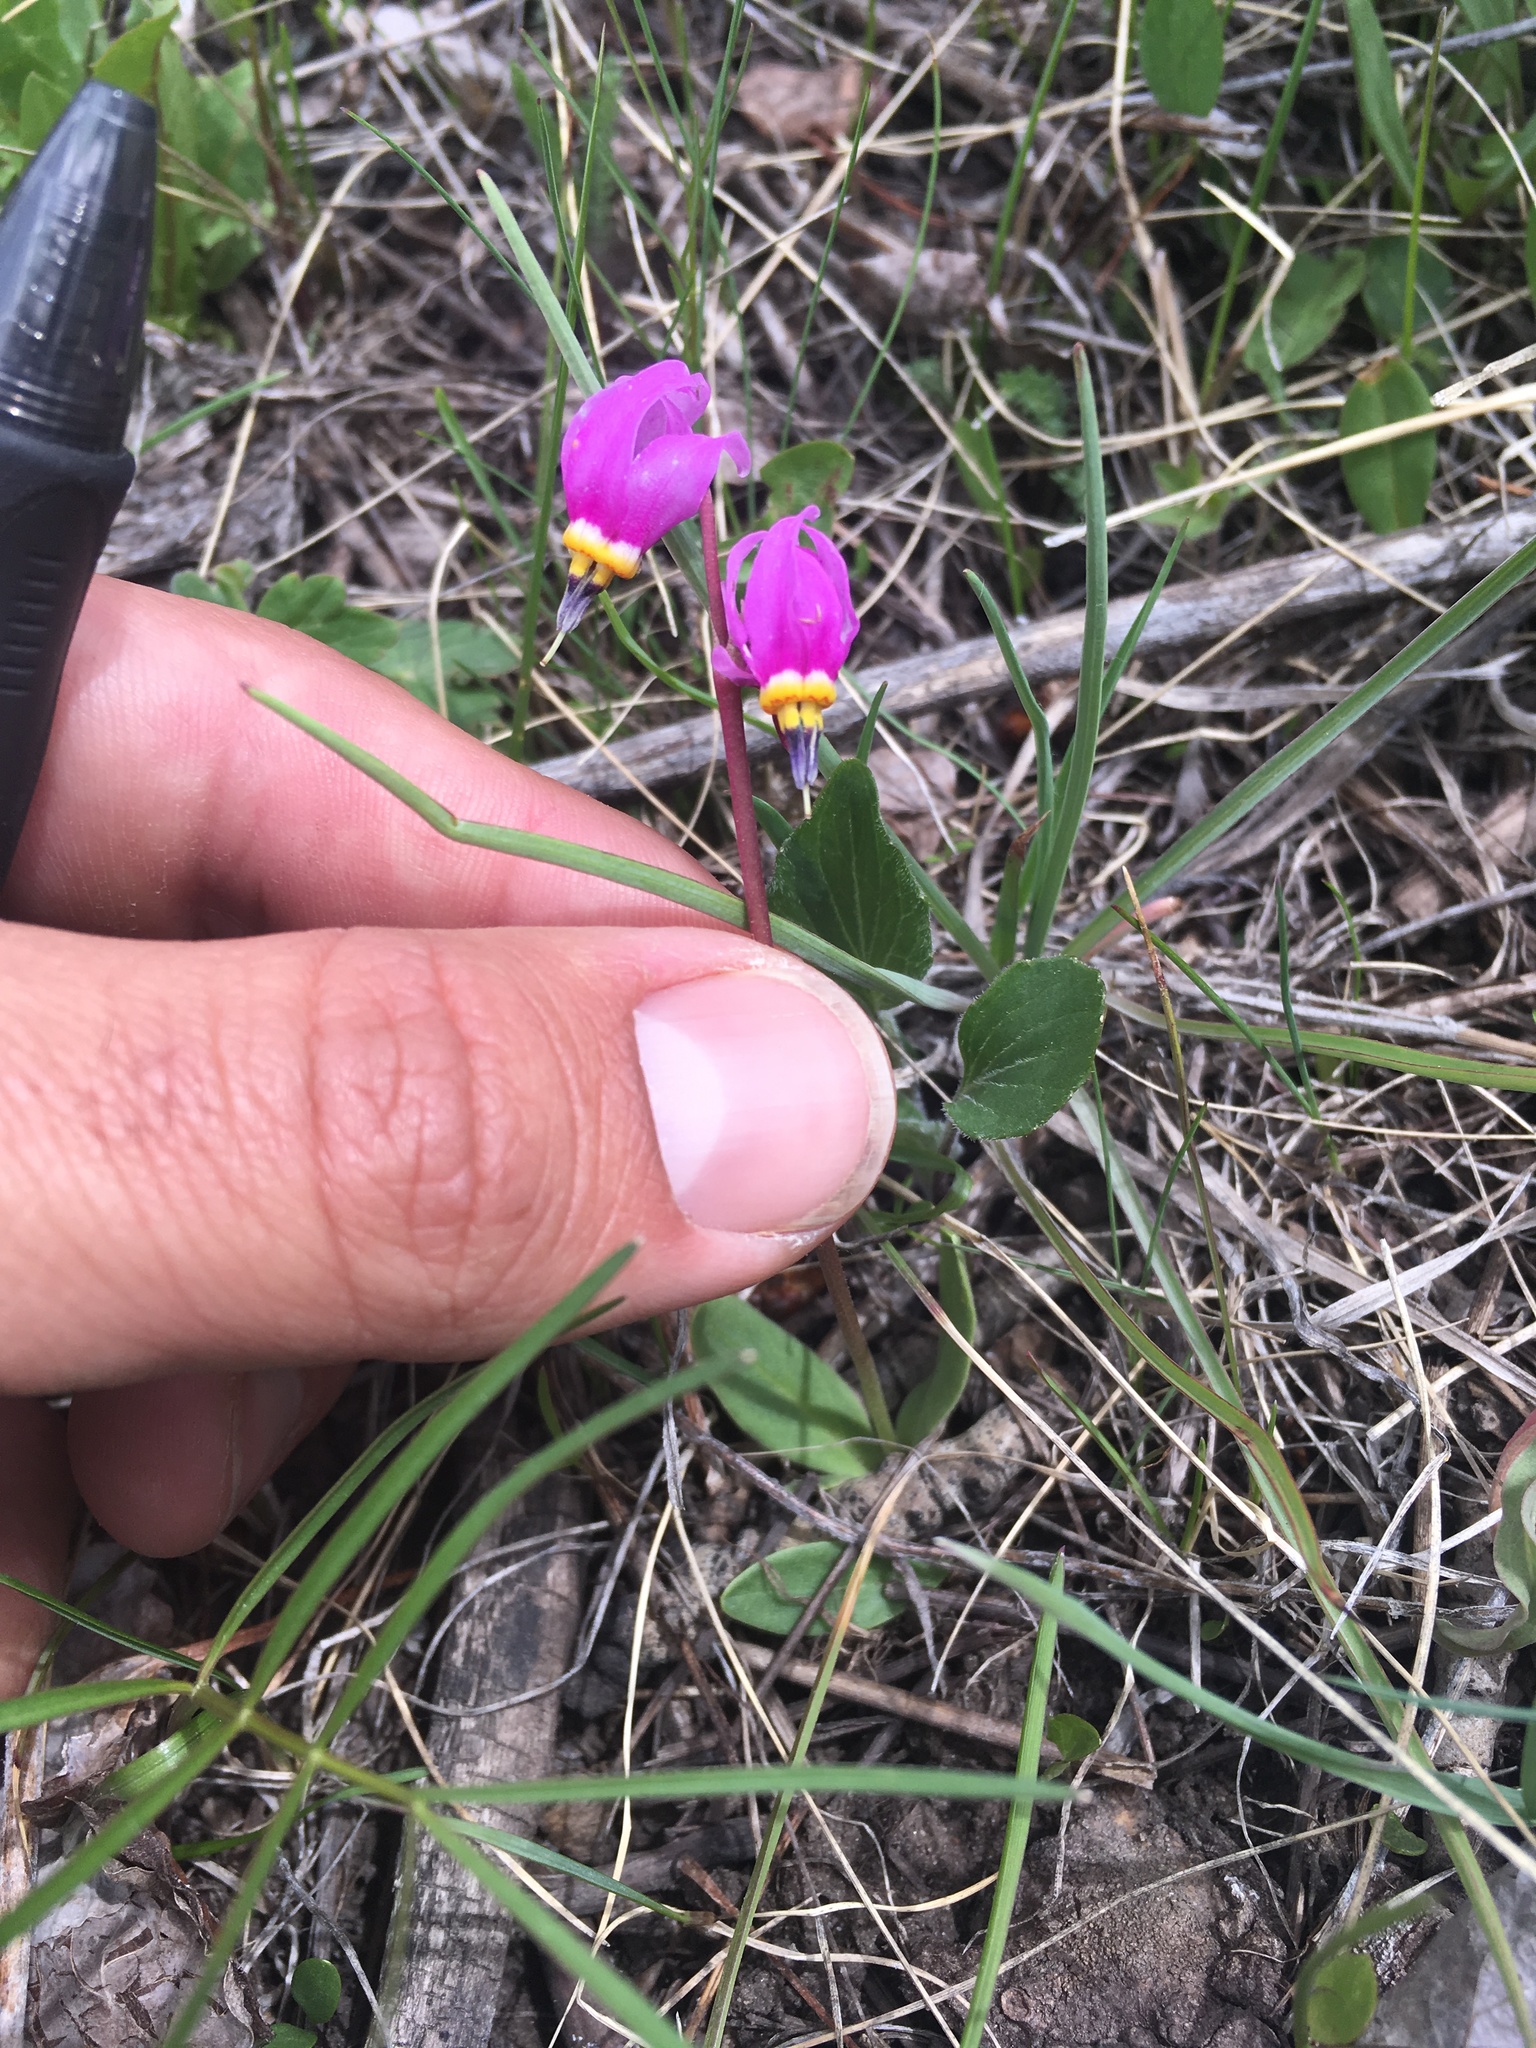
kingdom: Plantae
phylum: Tracheophyta
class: Magnoliopsida
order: Ericales
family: Primulaceae
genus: Dodecatheon
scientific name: Dodecatheon pulchellum
